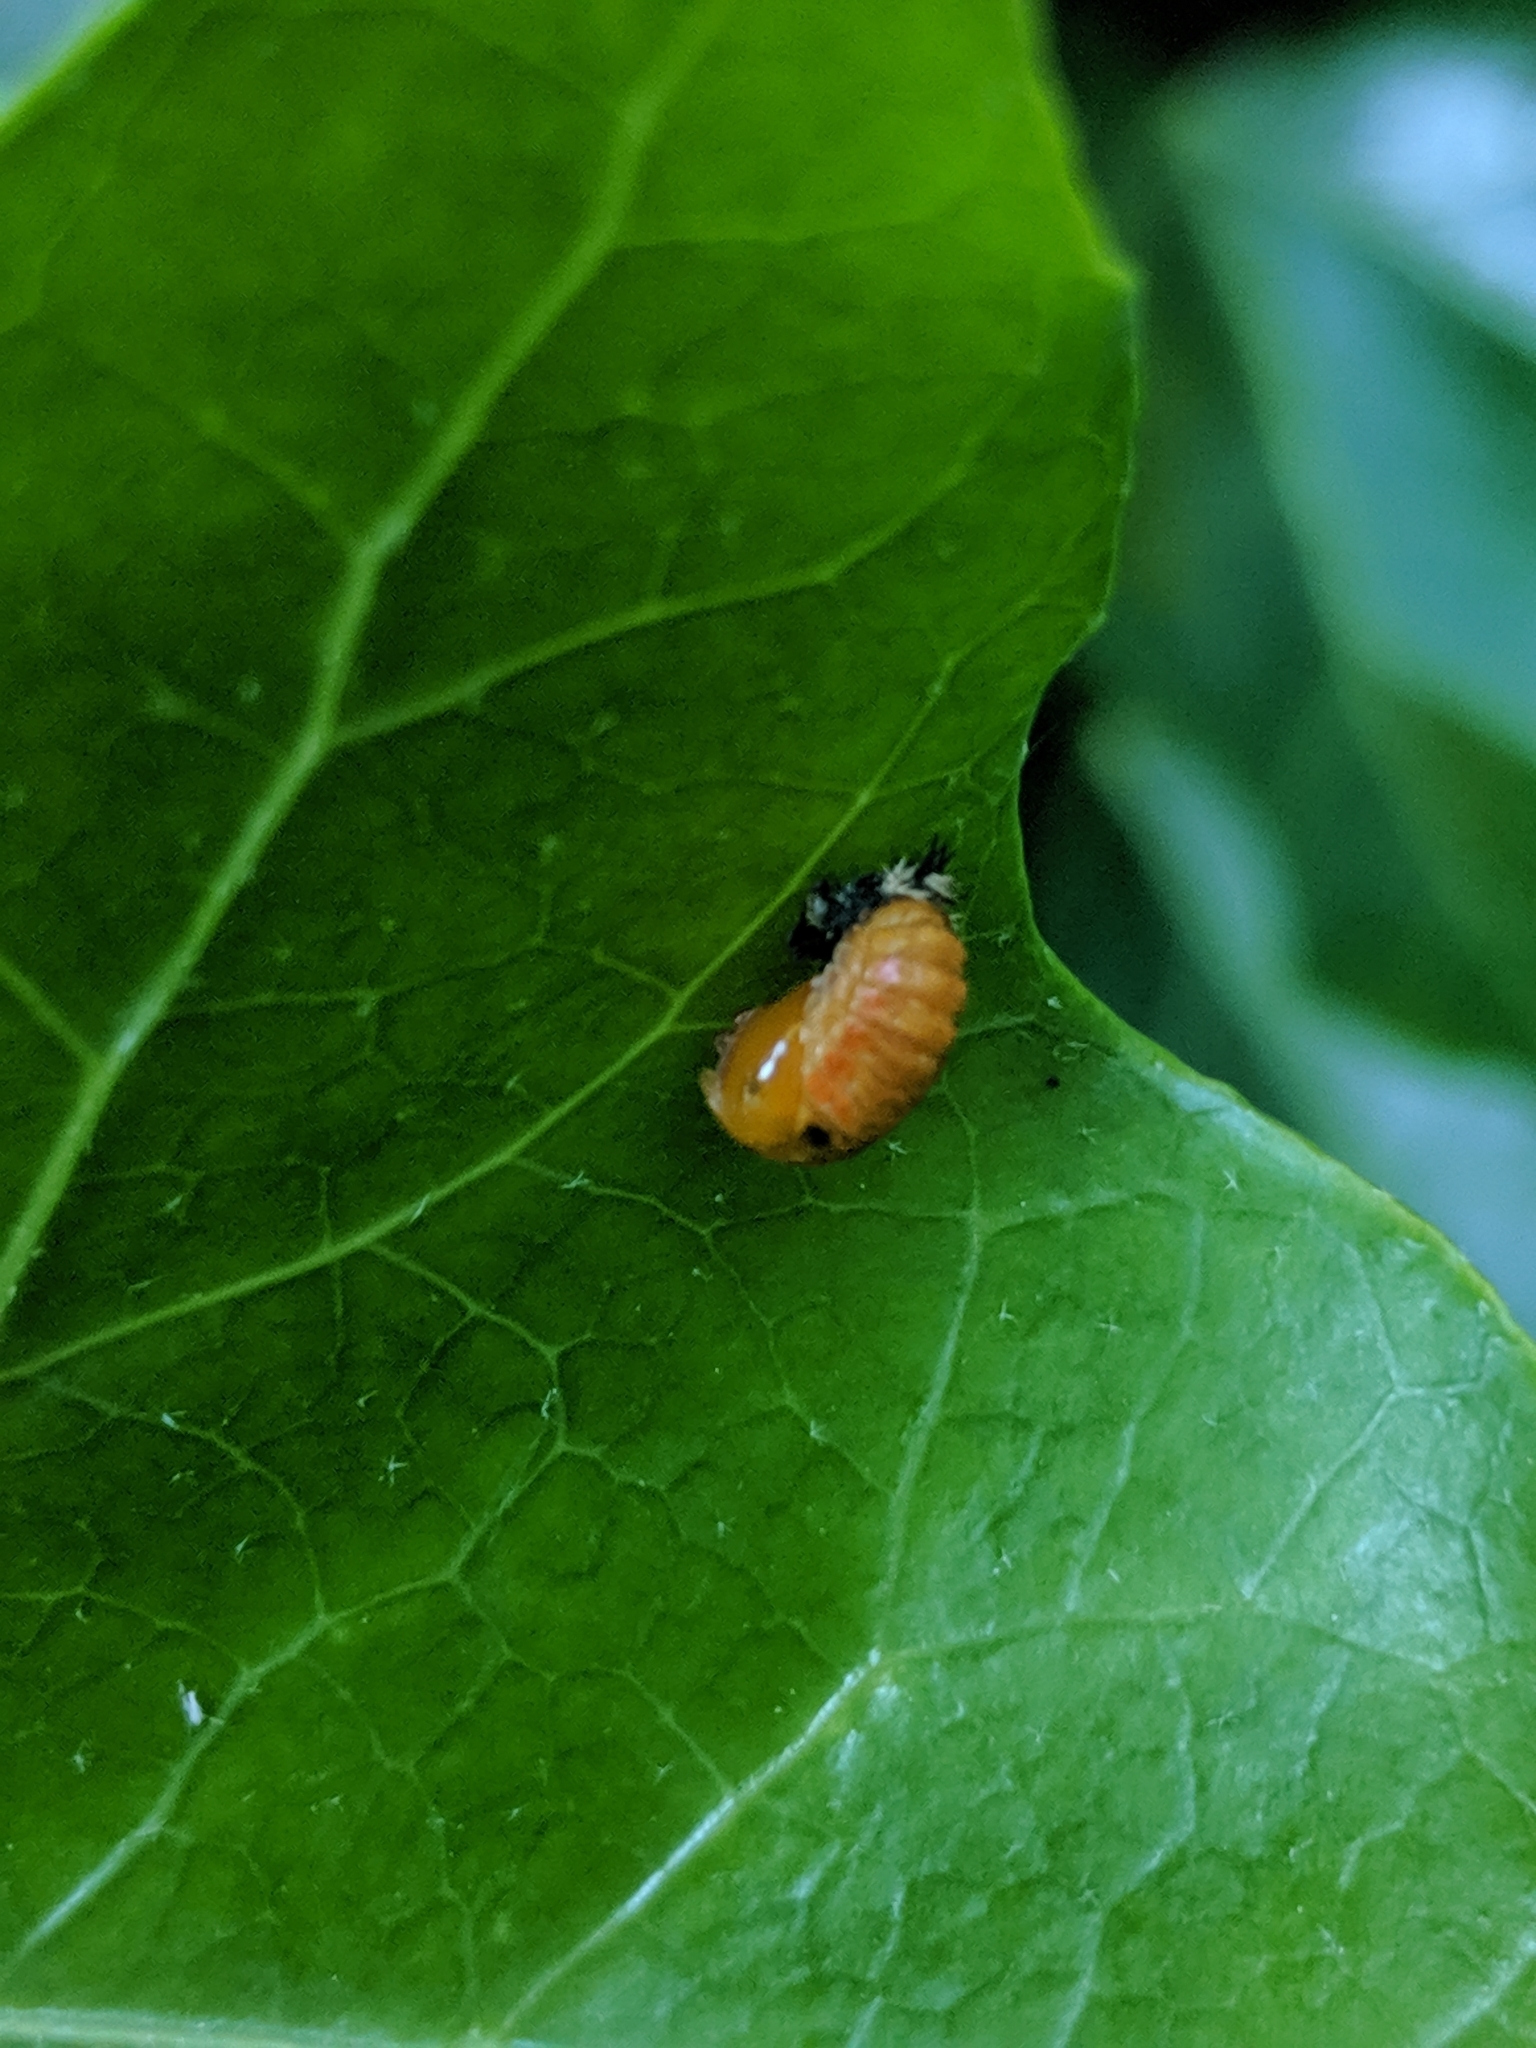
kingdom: Animalia
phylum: Arthropoda
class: Insecta
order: Coleoptera
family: Coccinellidae
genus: Harmonia
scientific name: Harmonia axyridis
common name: Harlequin ladybird
